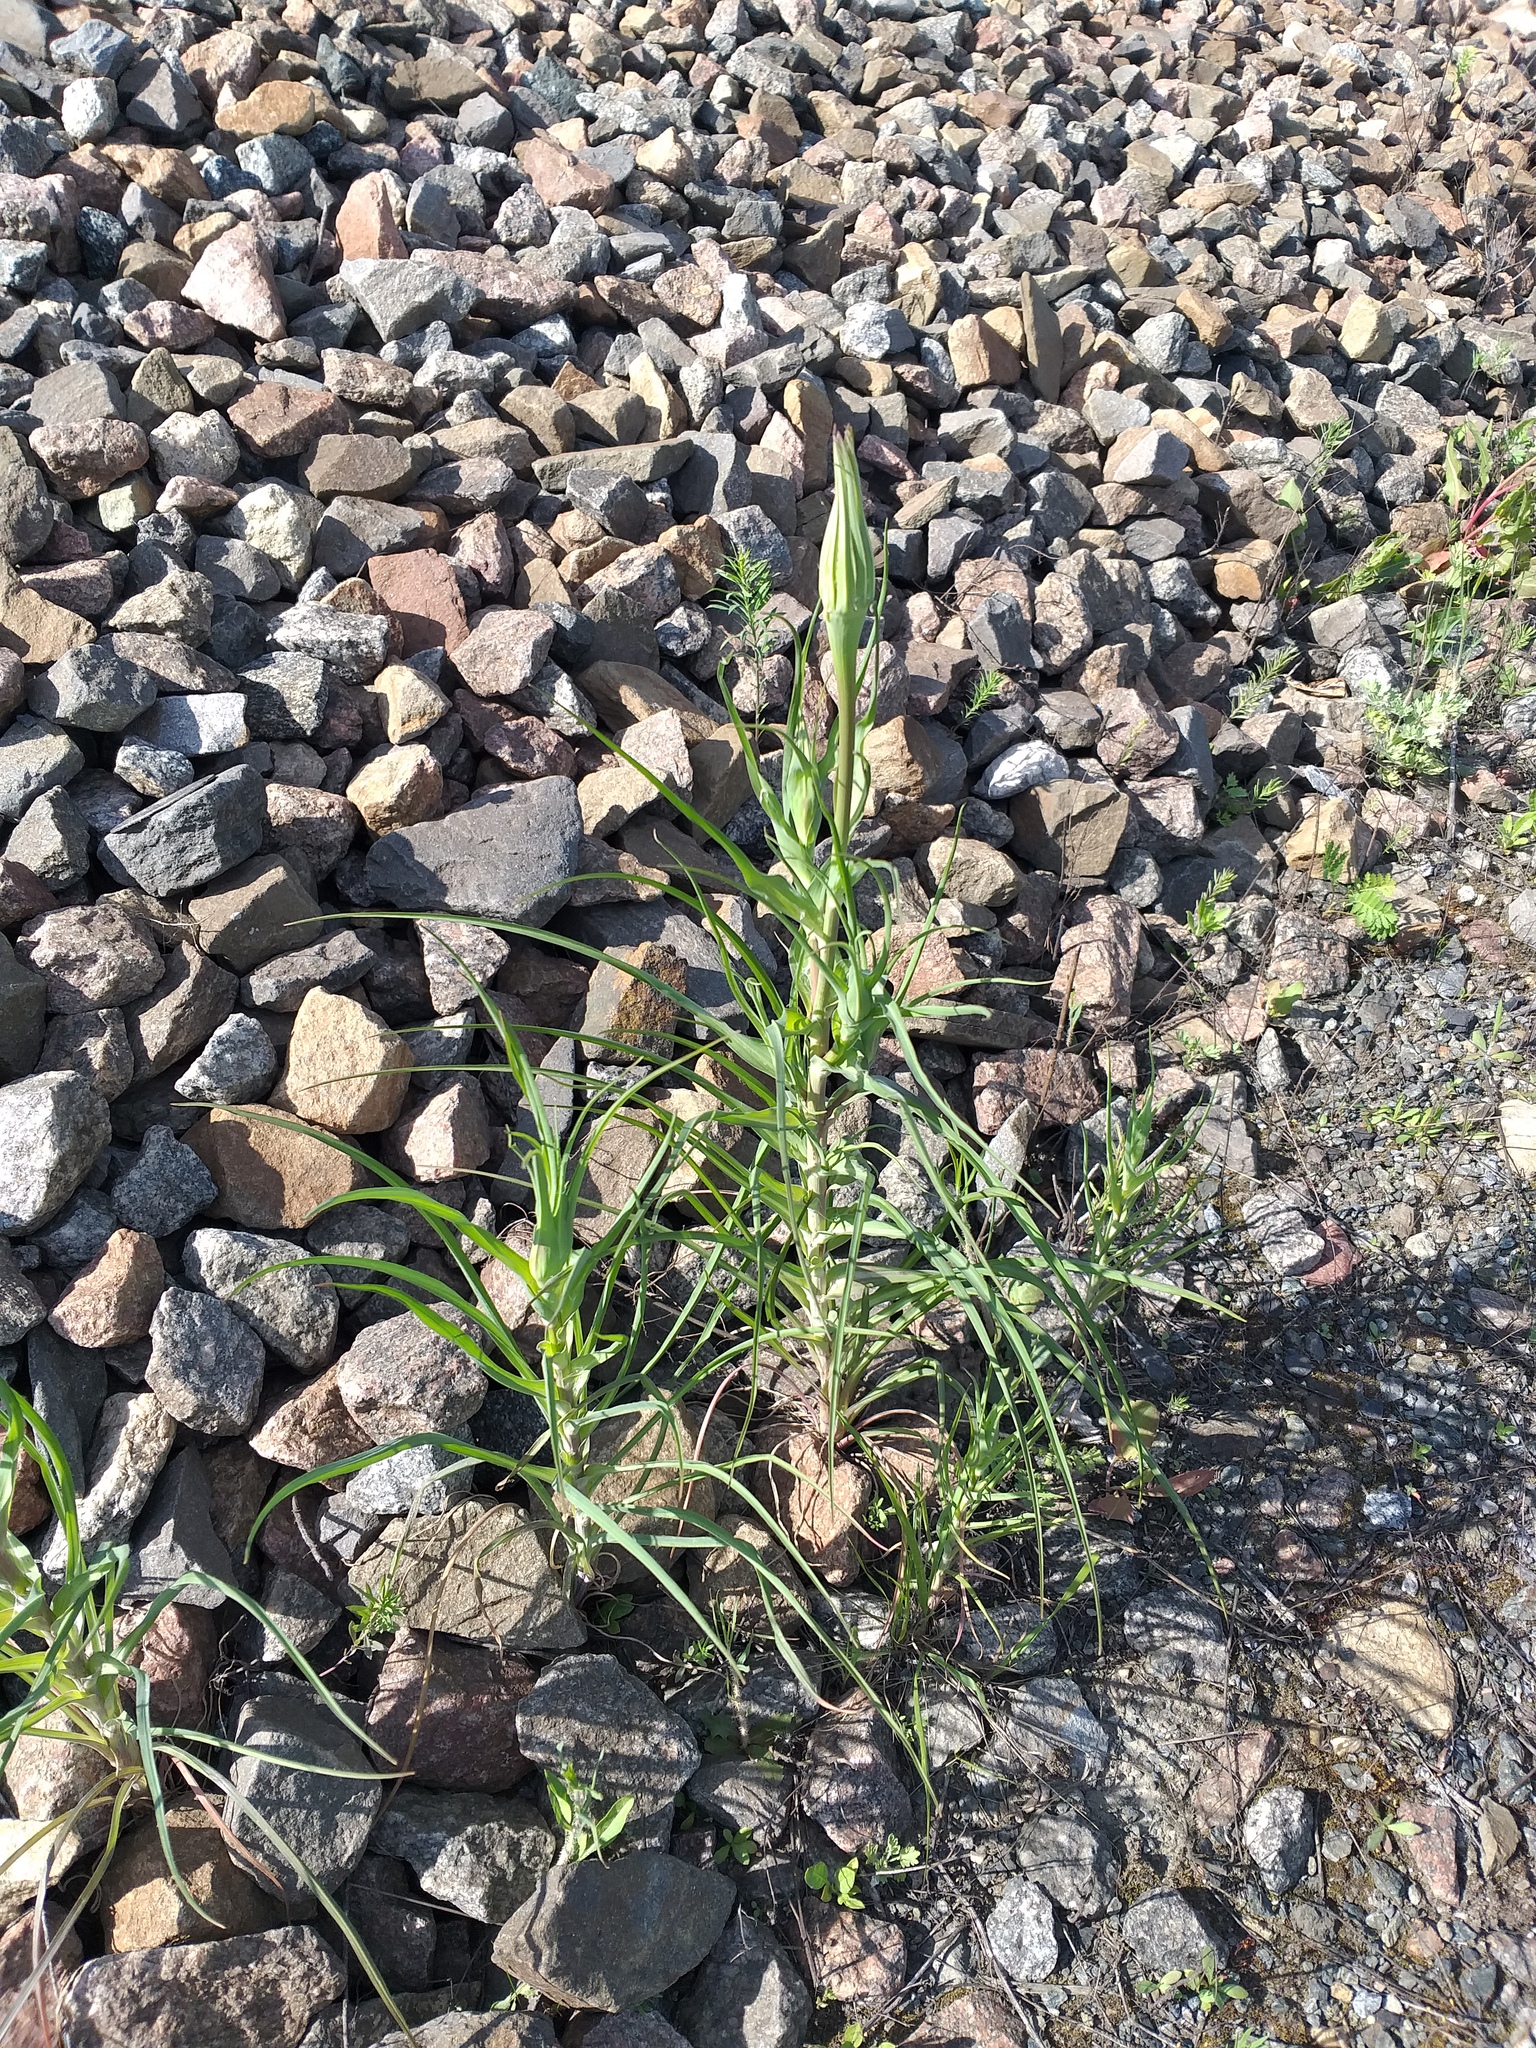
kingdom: Plantae
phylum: Tracheophyta
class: Magnoliopsida
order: Asterales
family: Asteraceae
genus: Tragopogon
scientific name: Tragopogon dubius
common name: Yellow salsify
